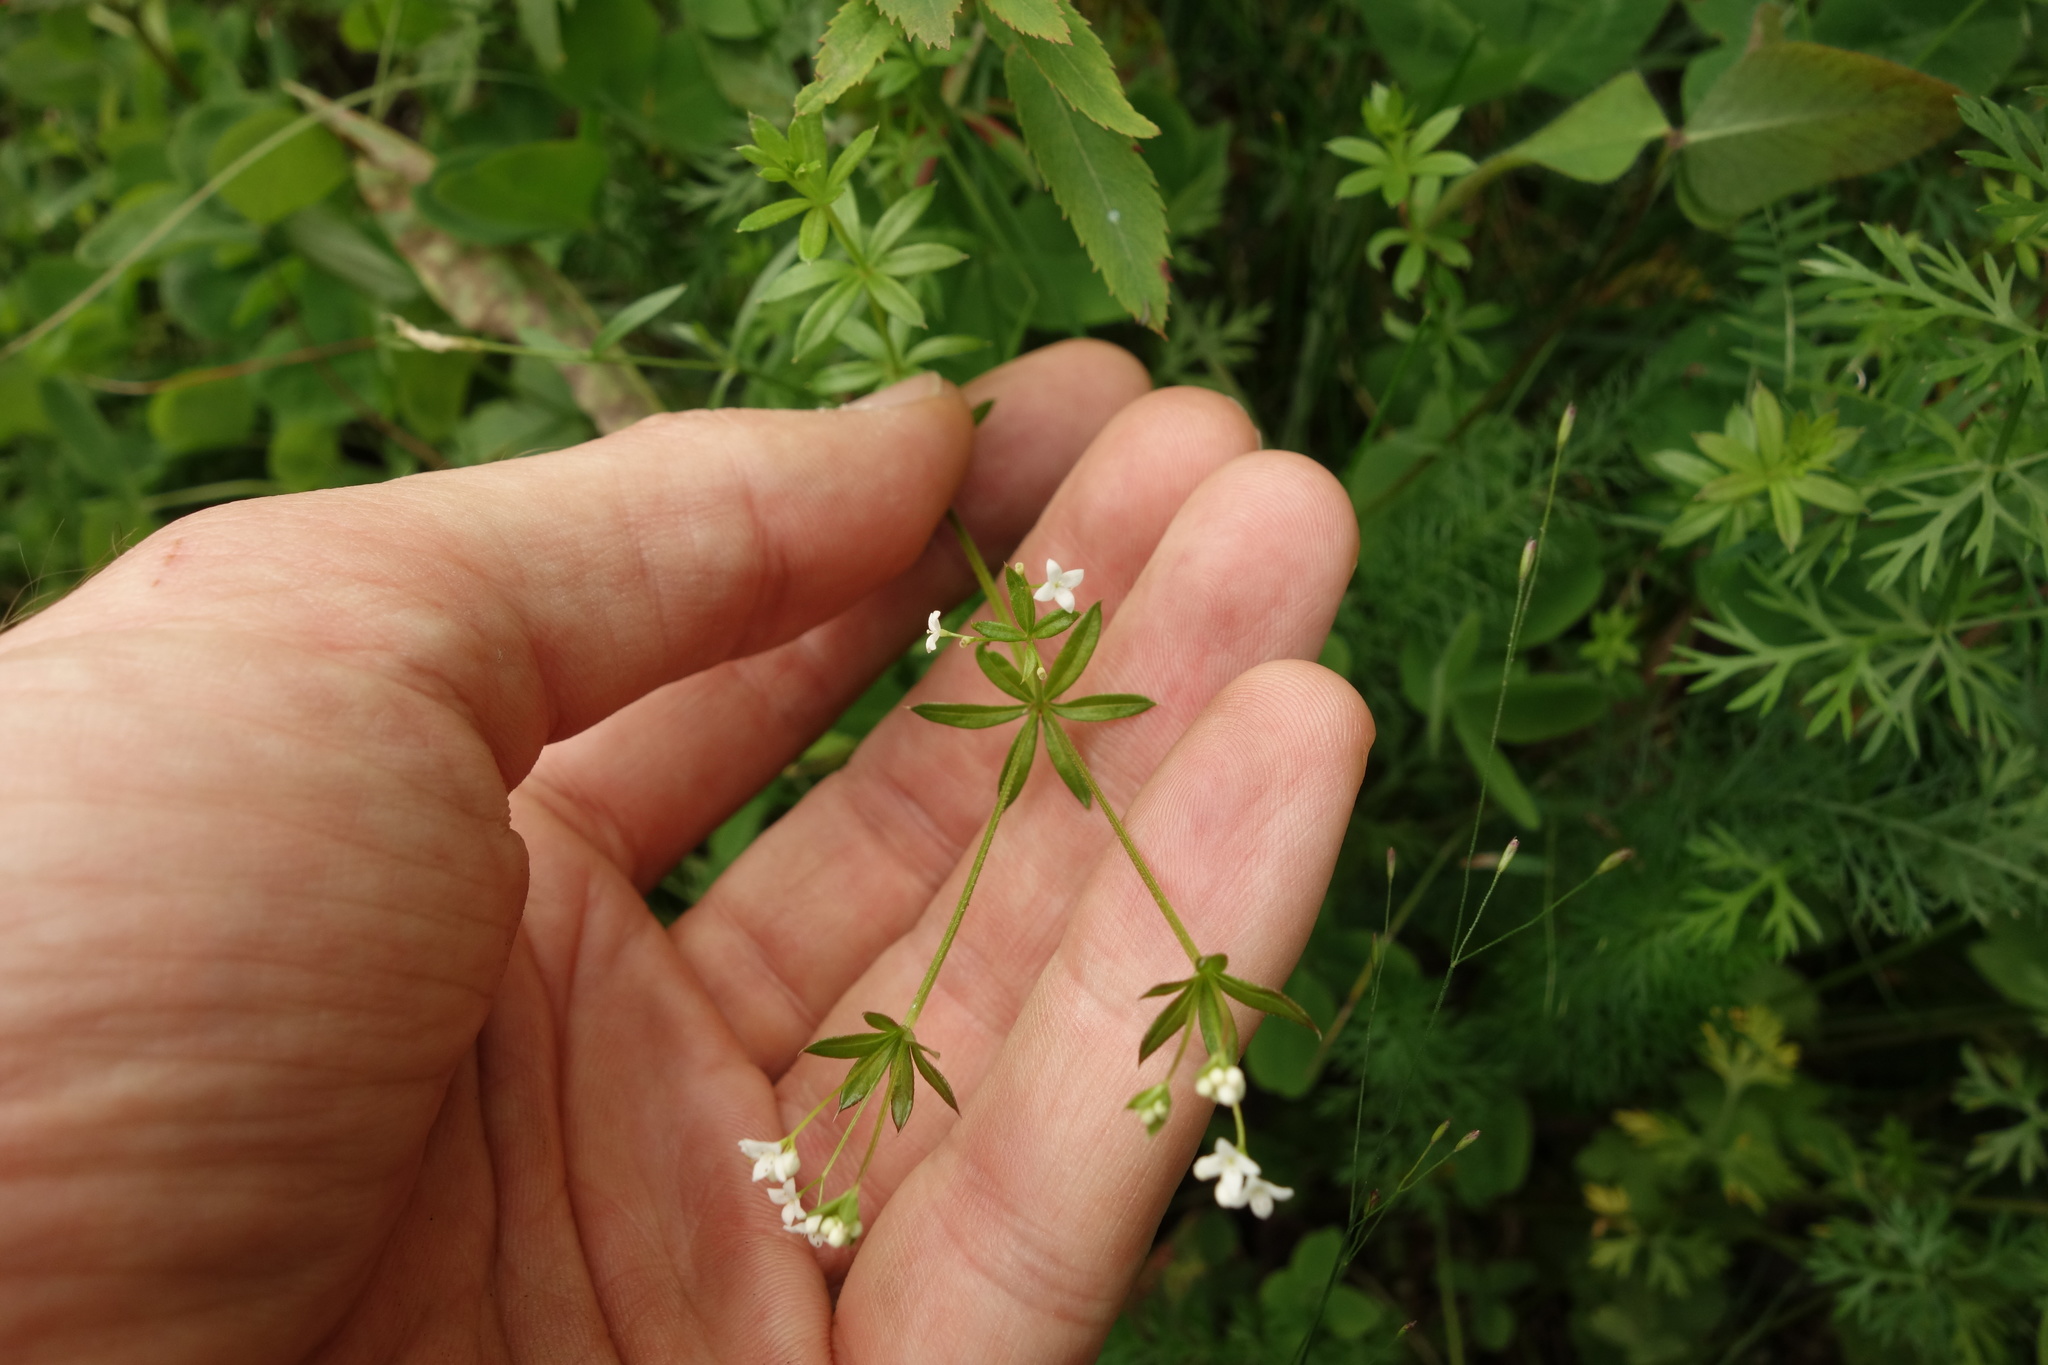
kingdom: Plantae
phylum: Tracheophyta
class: Magnoliopsida
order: Gentianales
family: Rubiaceae
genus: Galium
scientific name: Galium uliginosum
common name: Fen bedstraw
